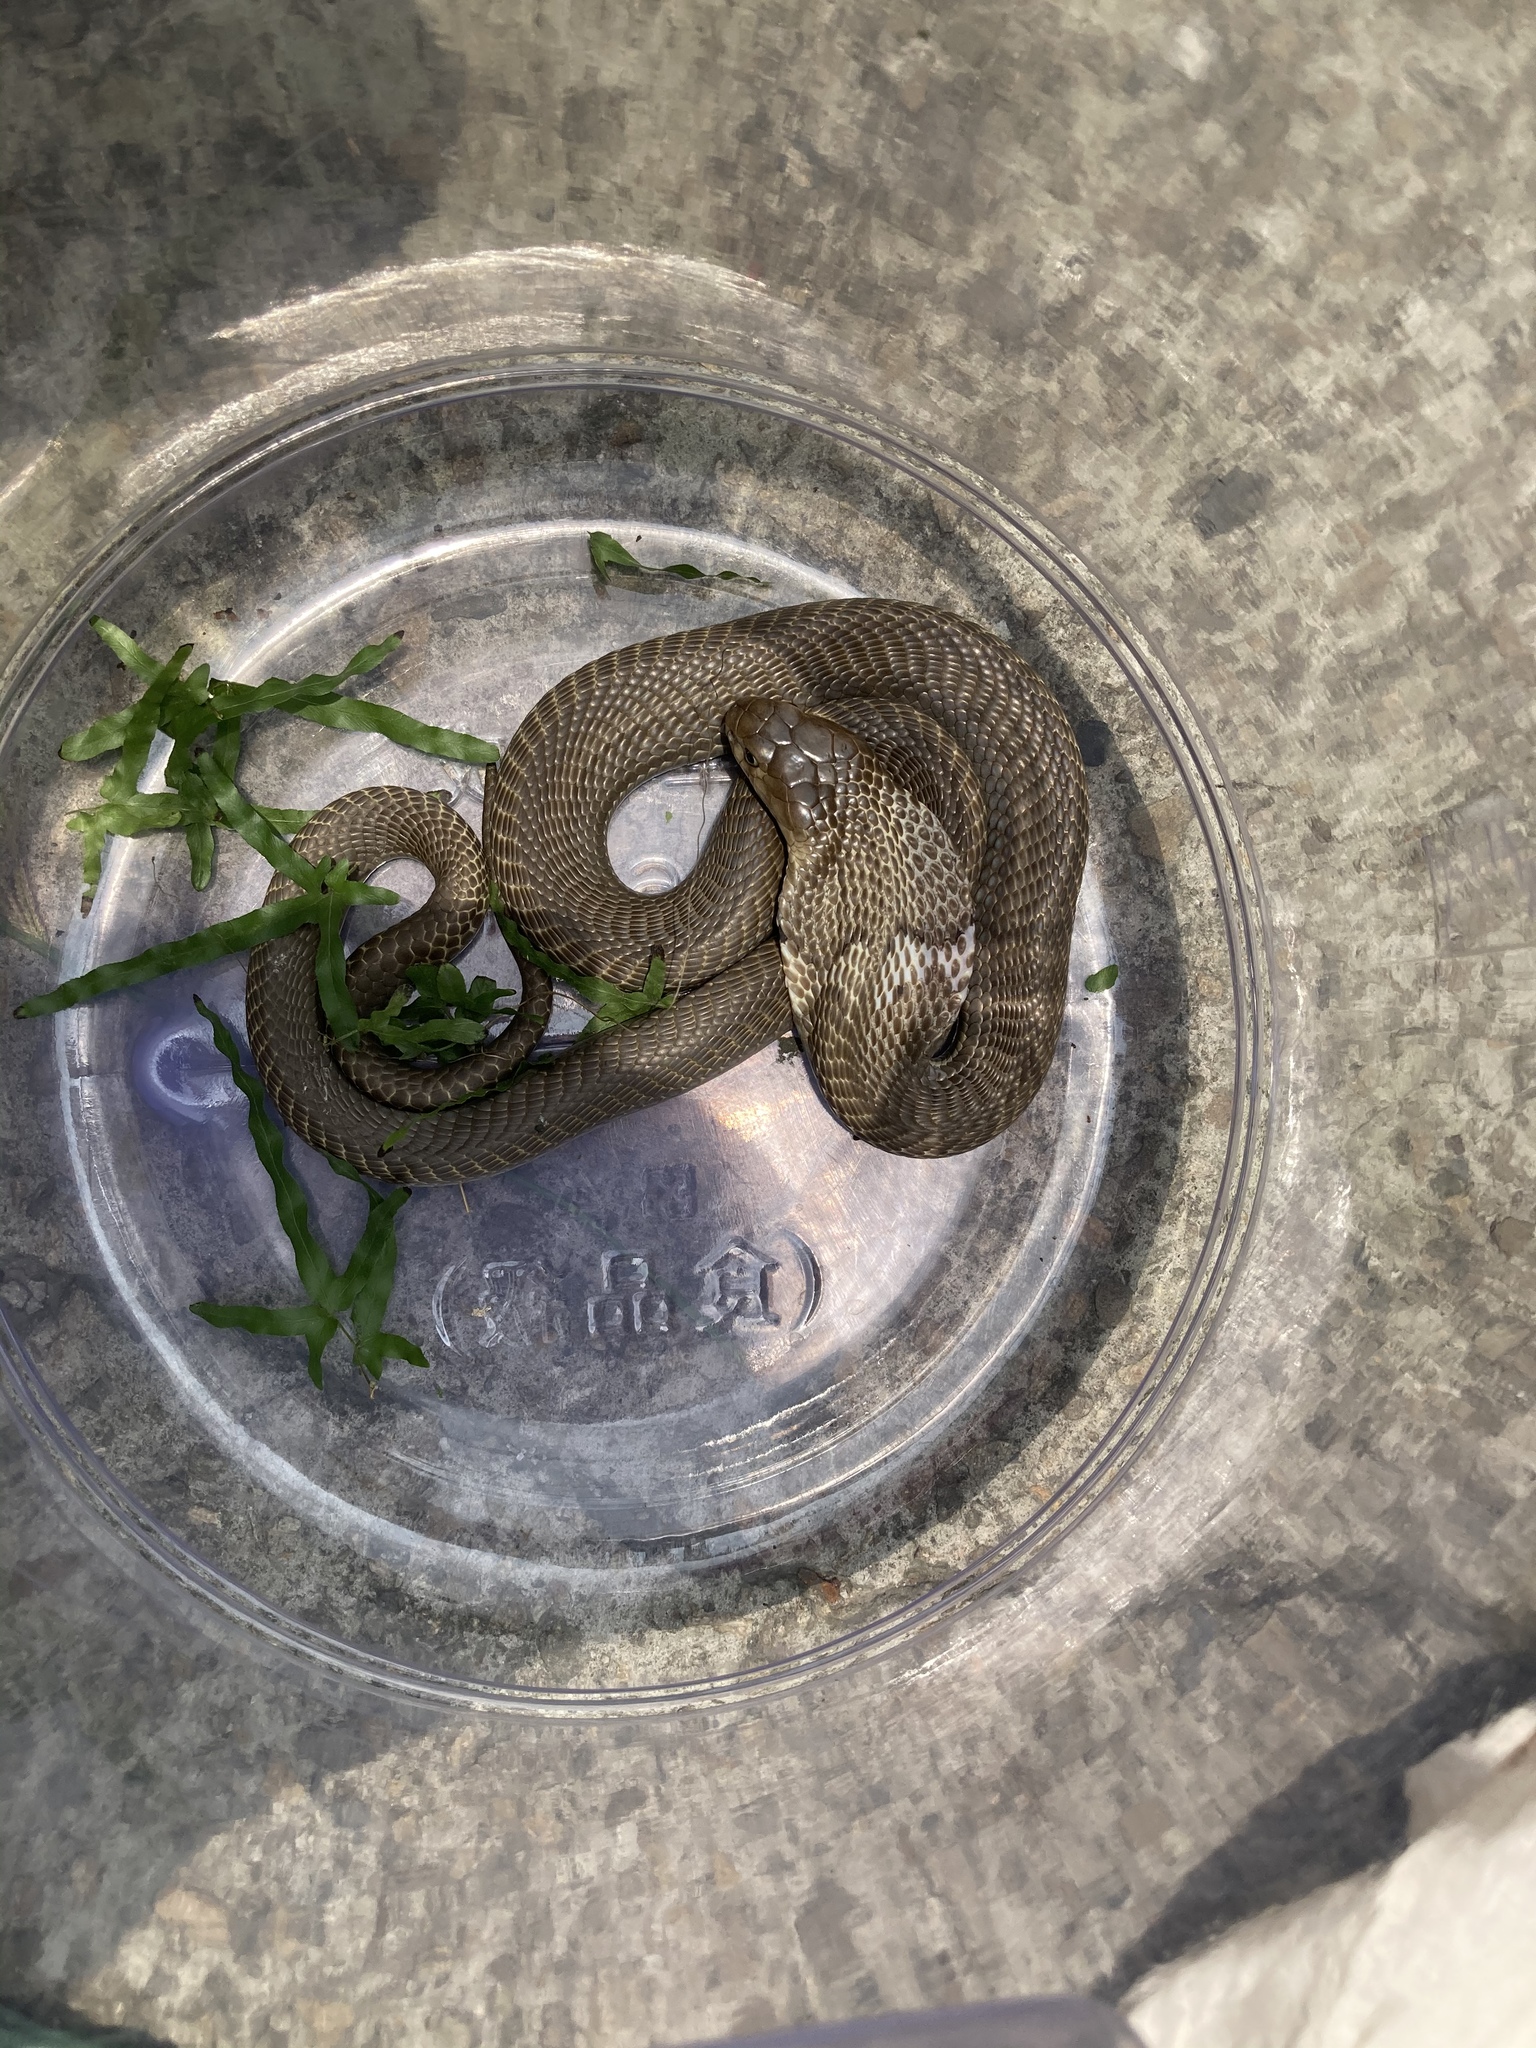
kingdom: Animalia
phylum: Chordata
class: Squamata
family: Elapidae
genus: Naja
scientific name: Naja atra
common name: Chinese cobra
